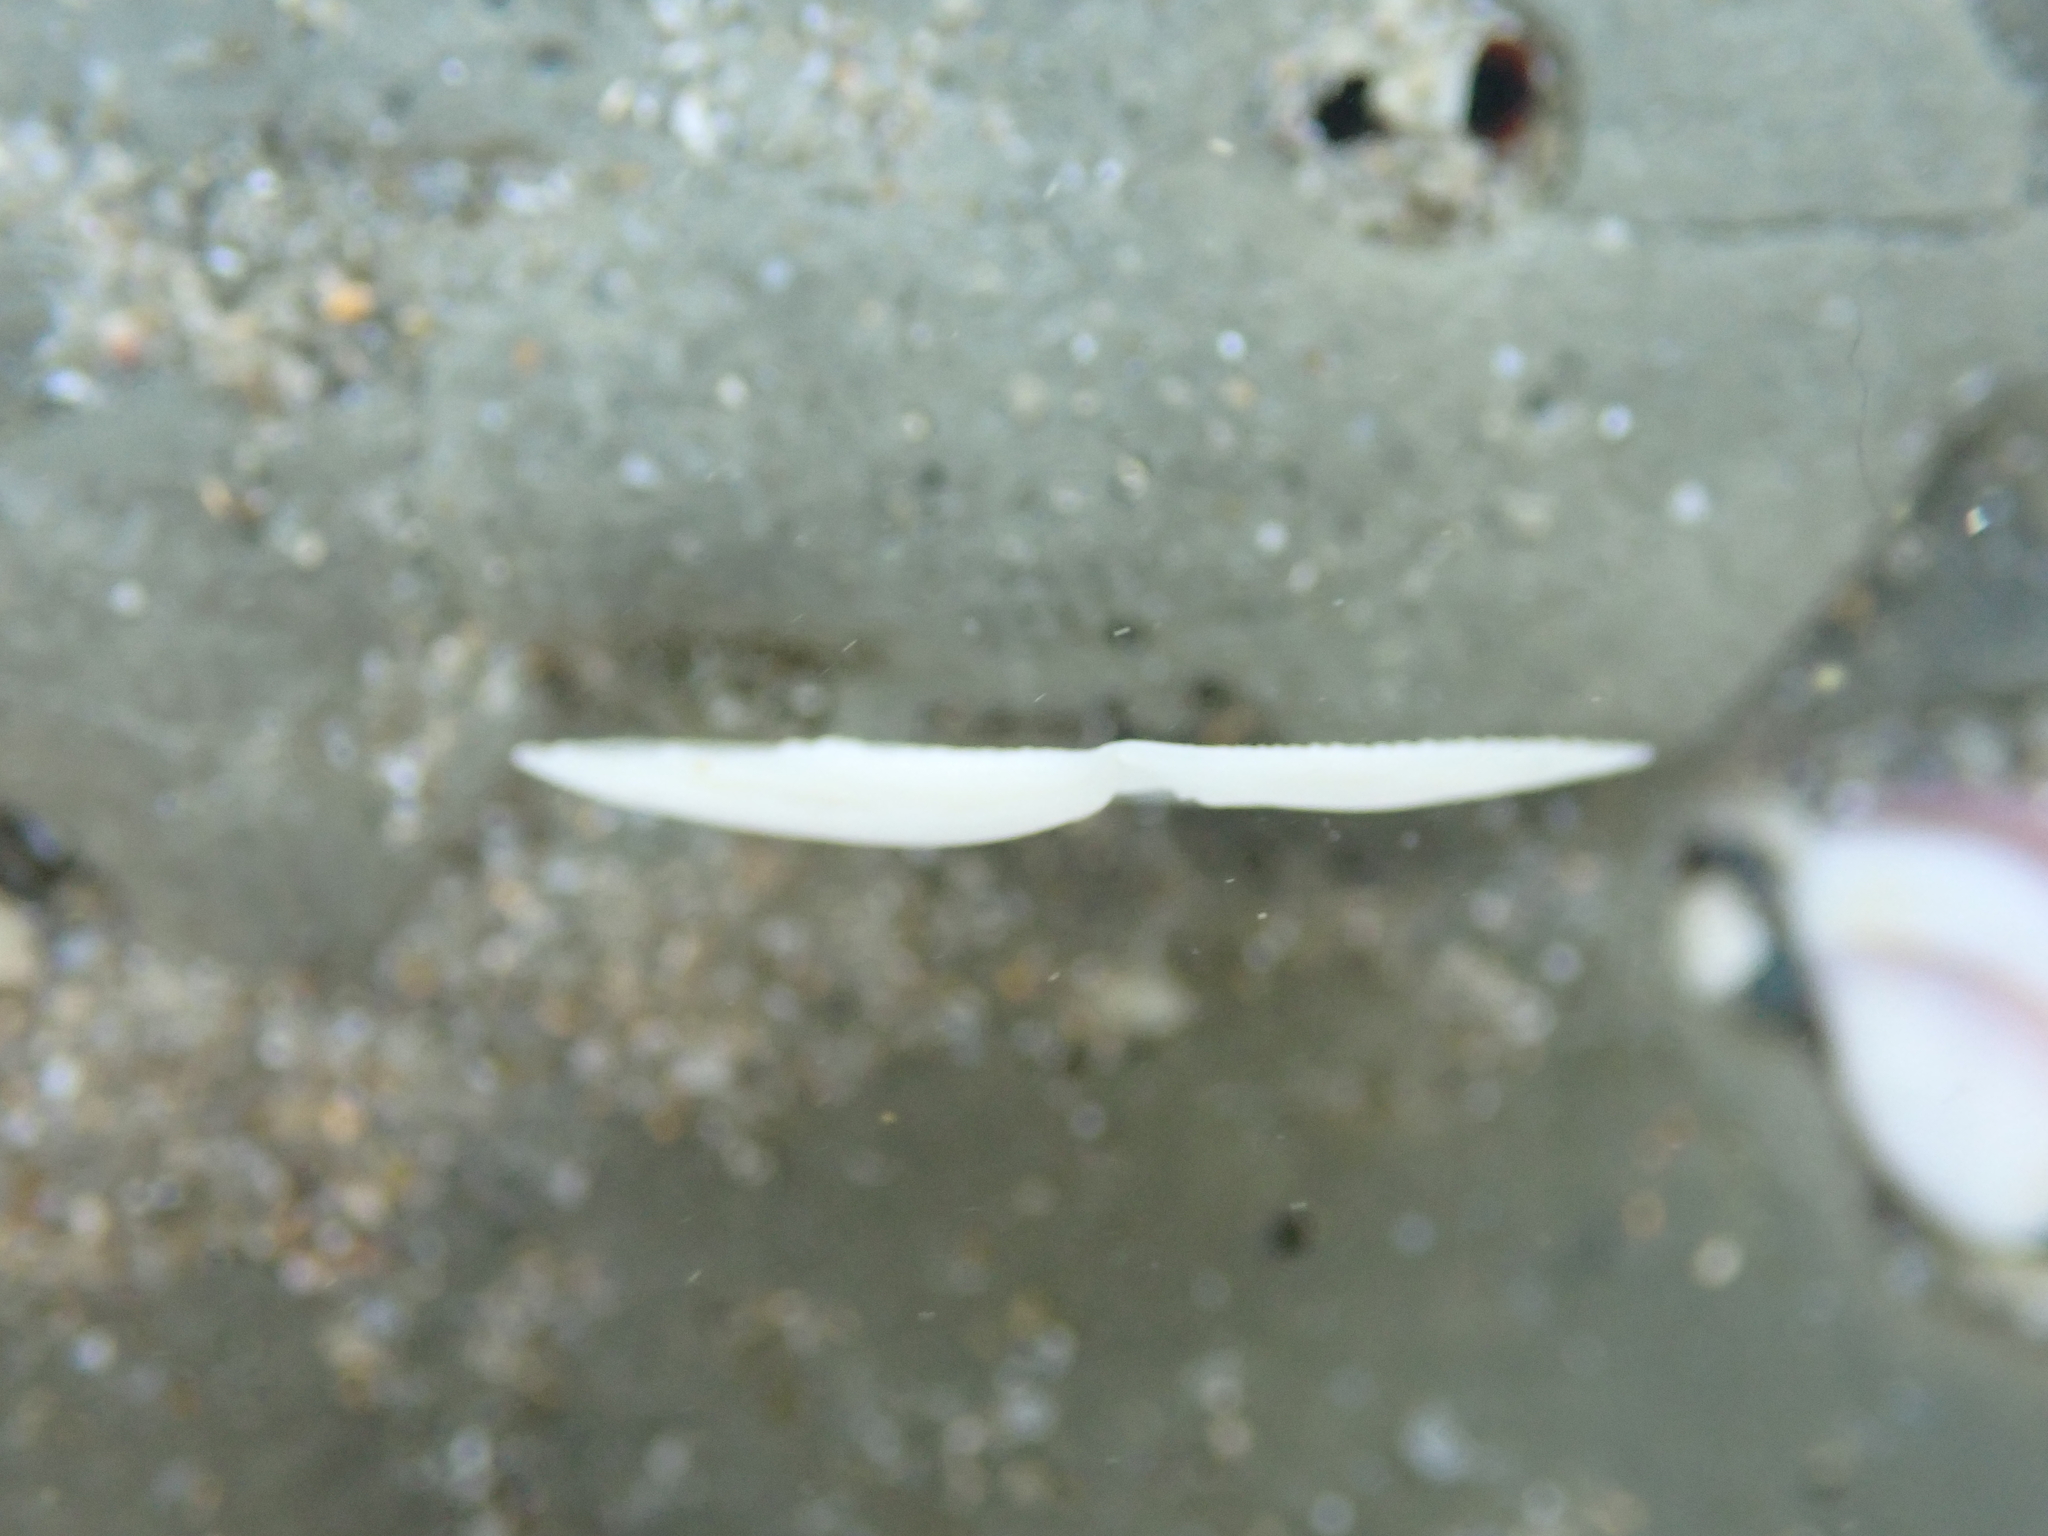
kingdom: Animalia
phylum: Mollusca
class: Bivalvia
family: Myochamidae
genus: Myadora
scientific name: Myadora striata
